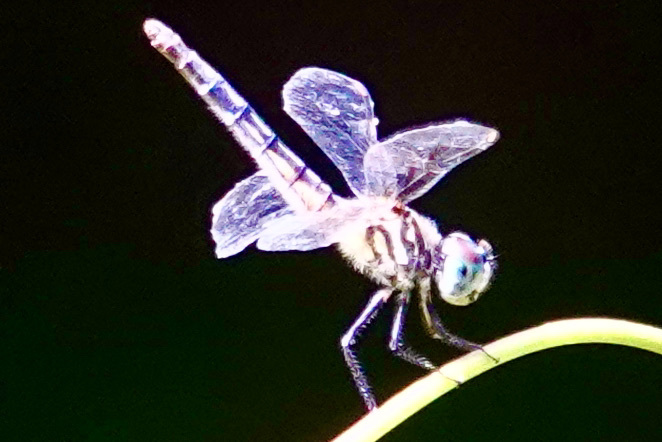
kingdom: Animalia
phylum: Arthropoda
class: Insecta
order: Odonata
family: Libellulidae
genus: Pachydiplax
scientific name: Pachydiplax longipennis
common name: Blue dasher
